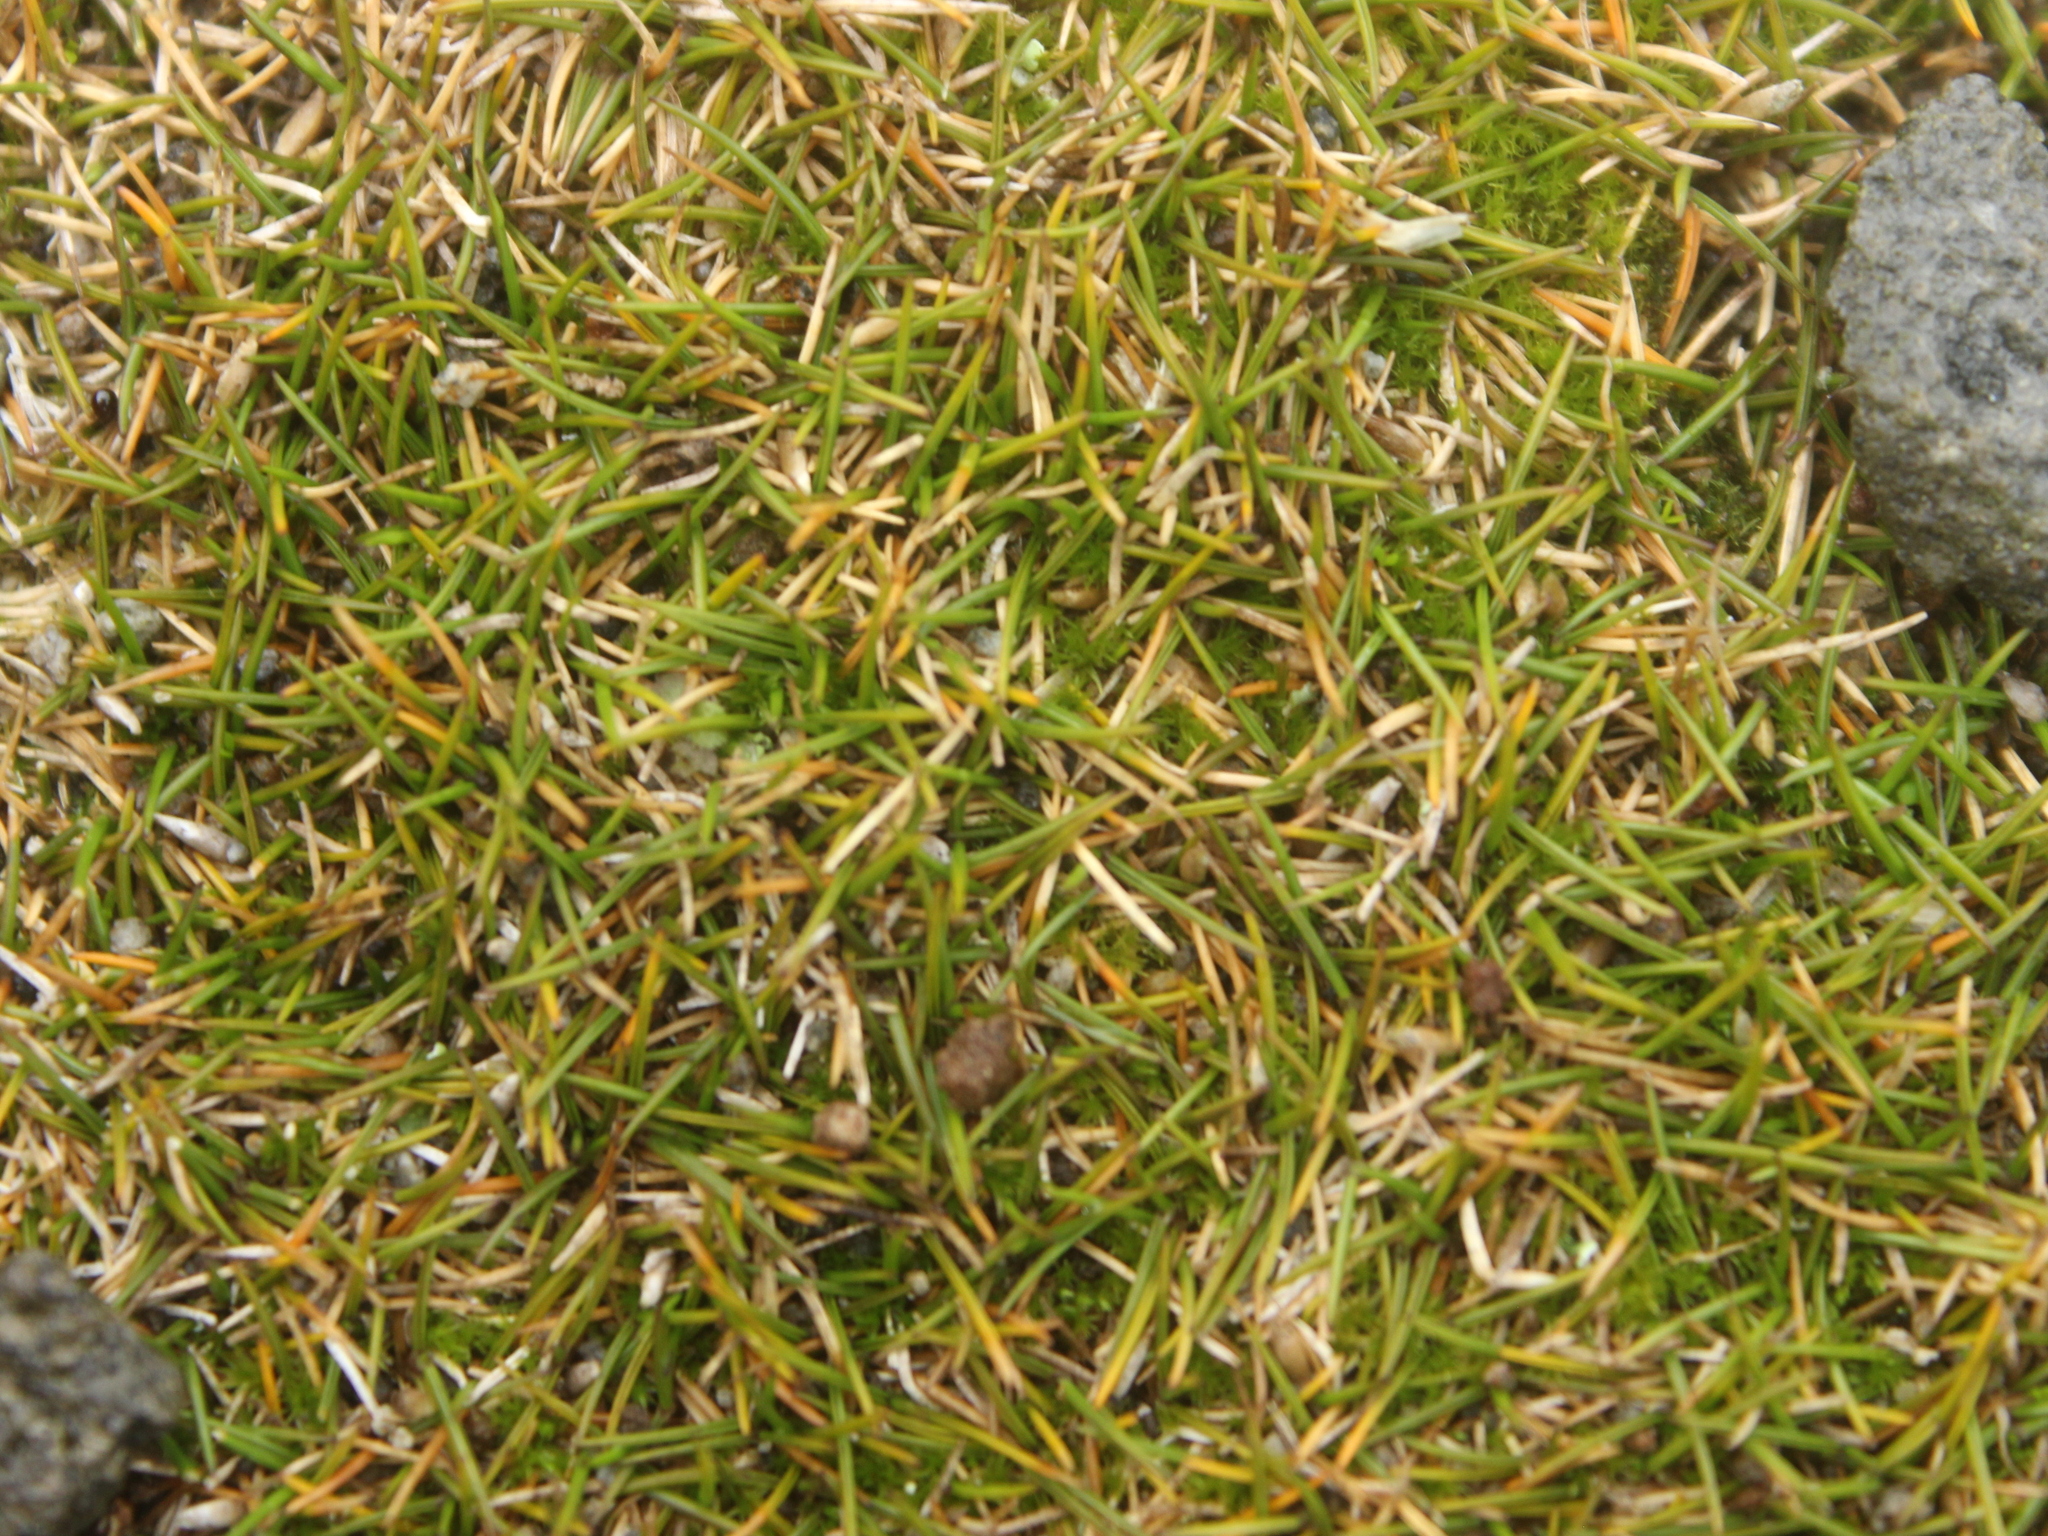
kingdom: Plantae
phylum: Tracheophyta
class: Liliopsida
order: Poales
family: Poaceae
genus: Zoysia
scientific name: Zoysia minima
